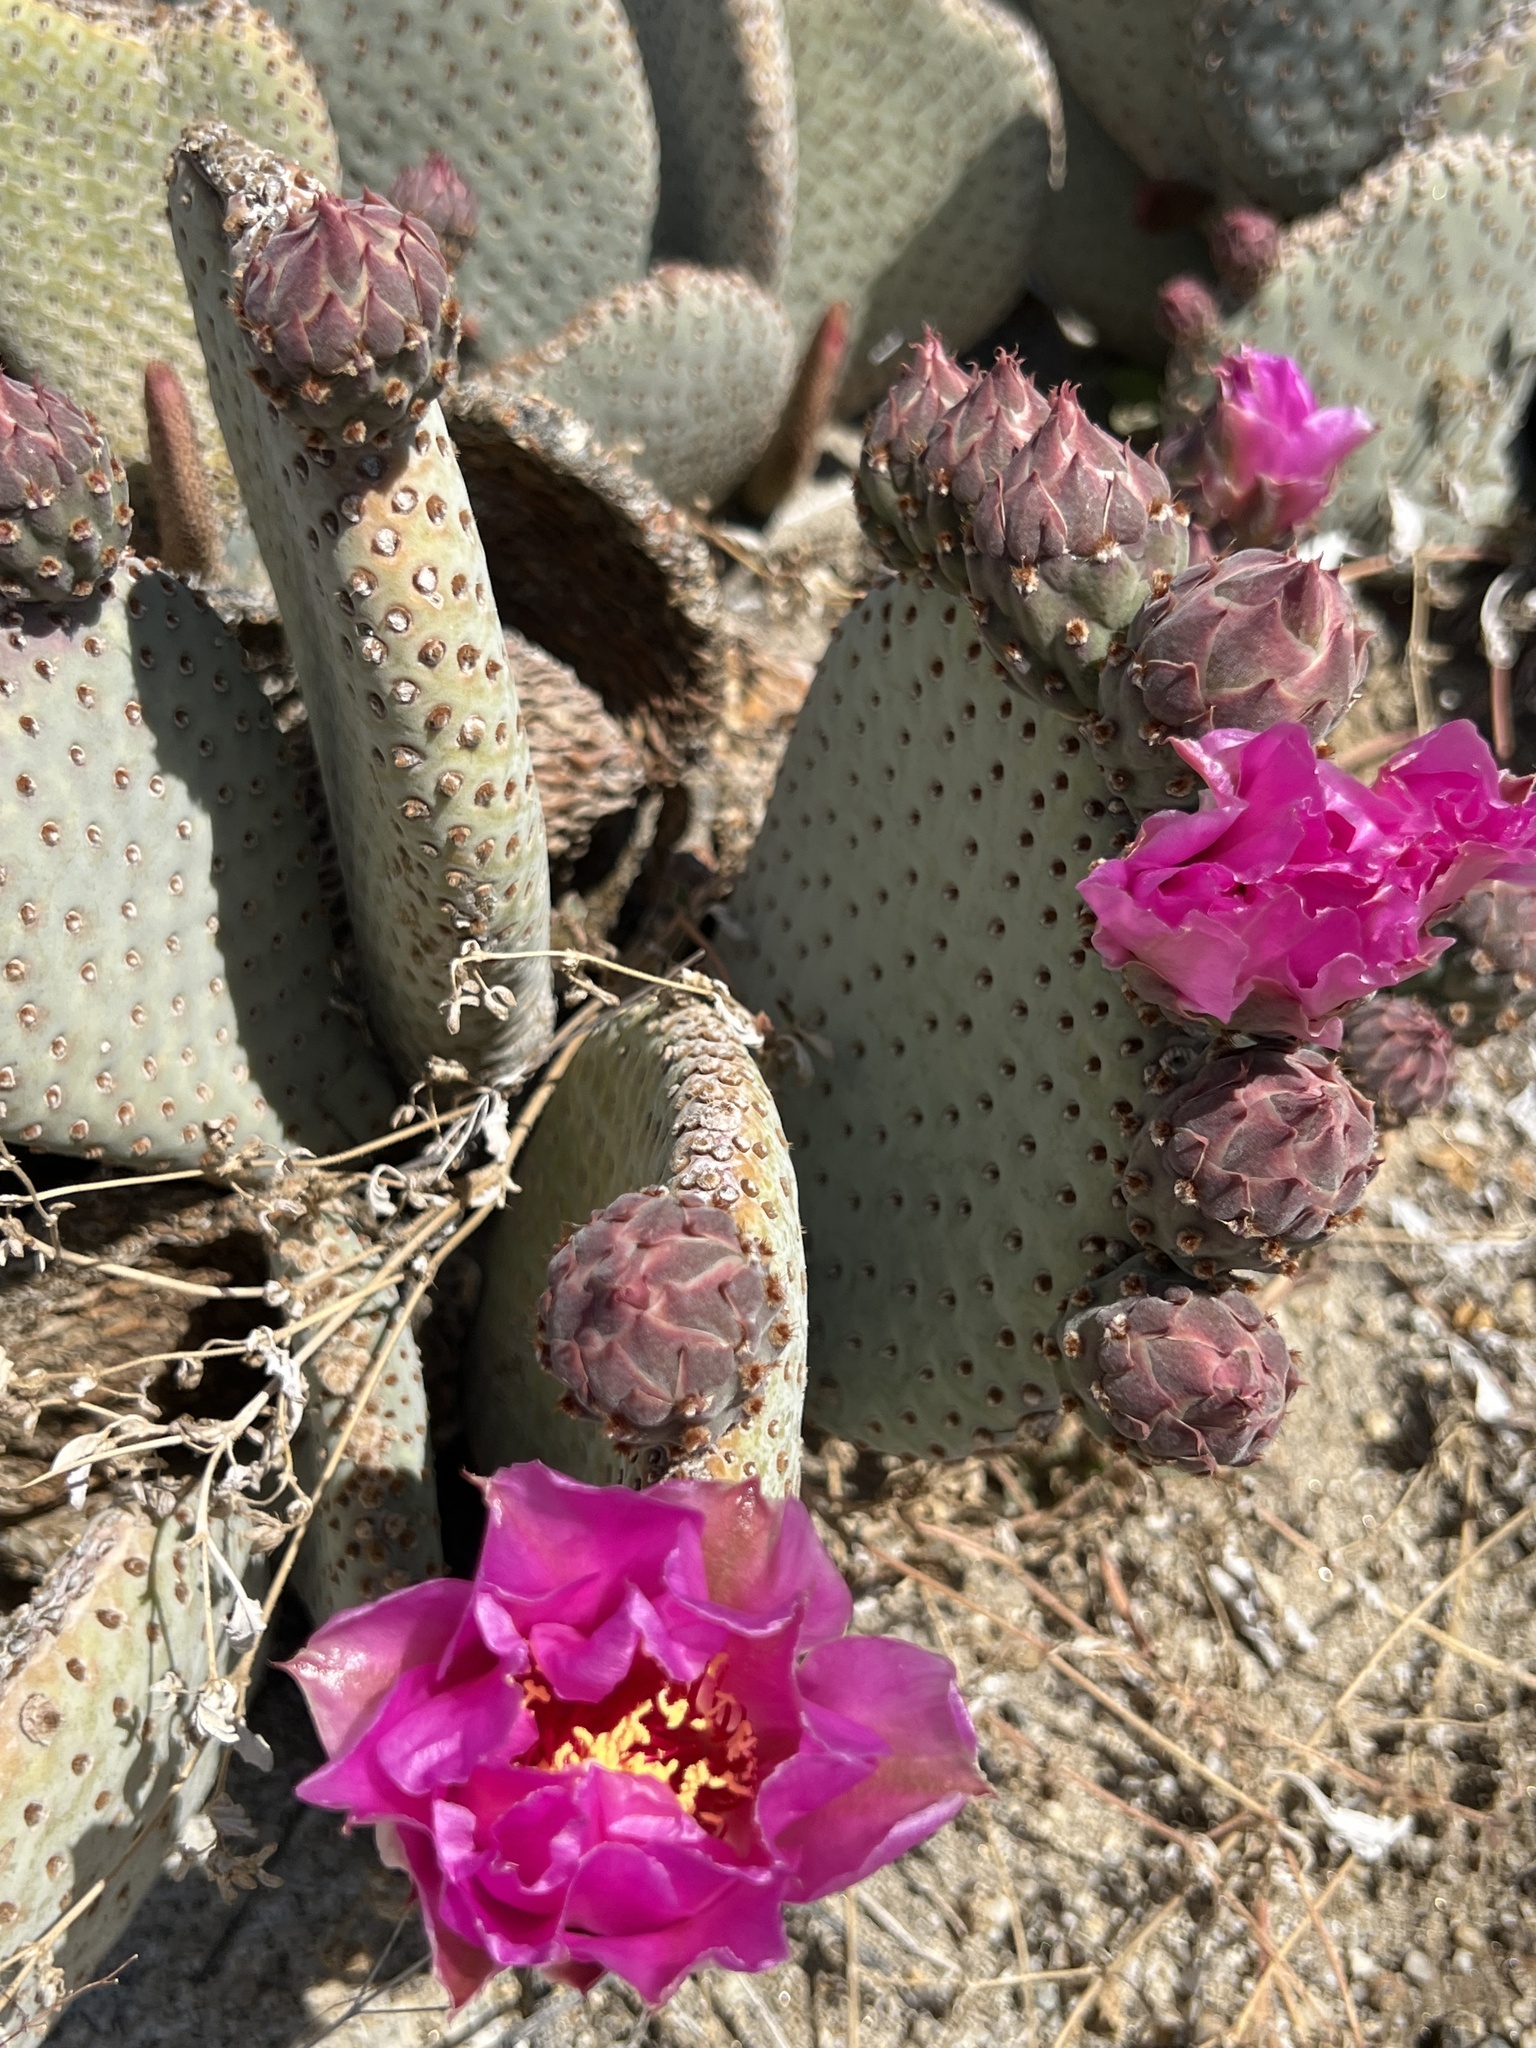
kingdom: Plantae
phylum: Tracheophyta
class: Magnoliopsida
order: Caryophyllales
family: Cactaceae
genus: Opuntia
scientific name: Opuntia basilaris
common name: Beavertail prickly-pear
